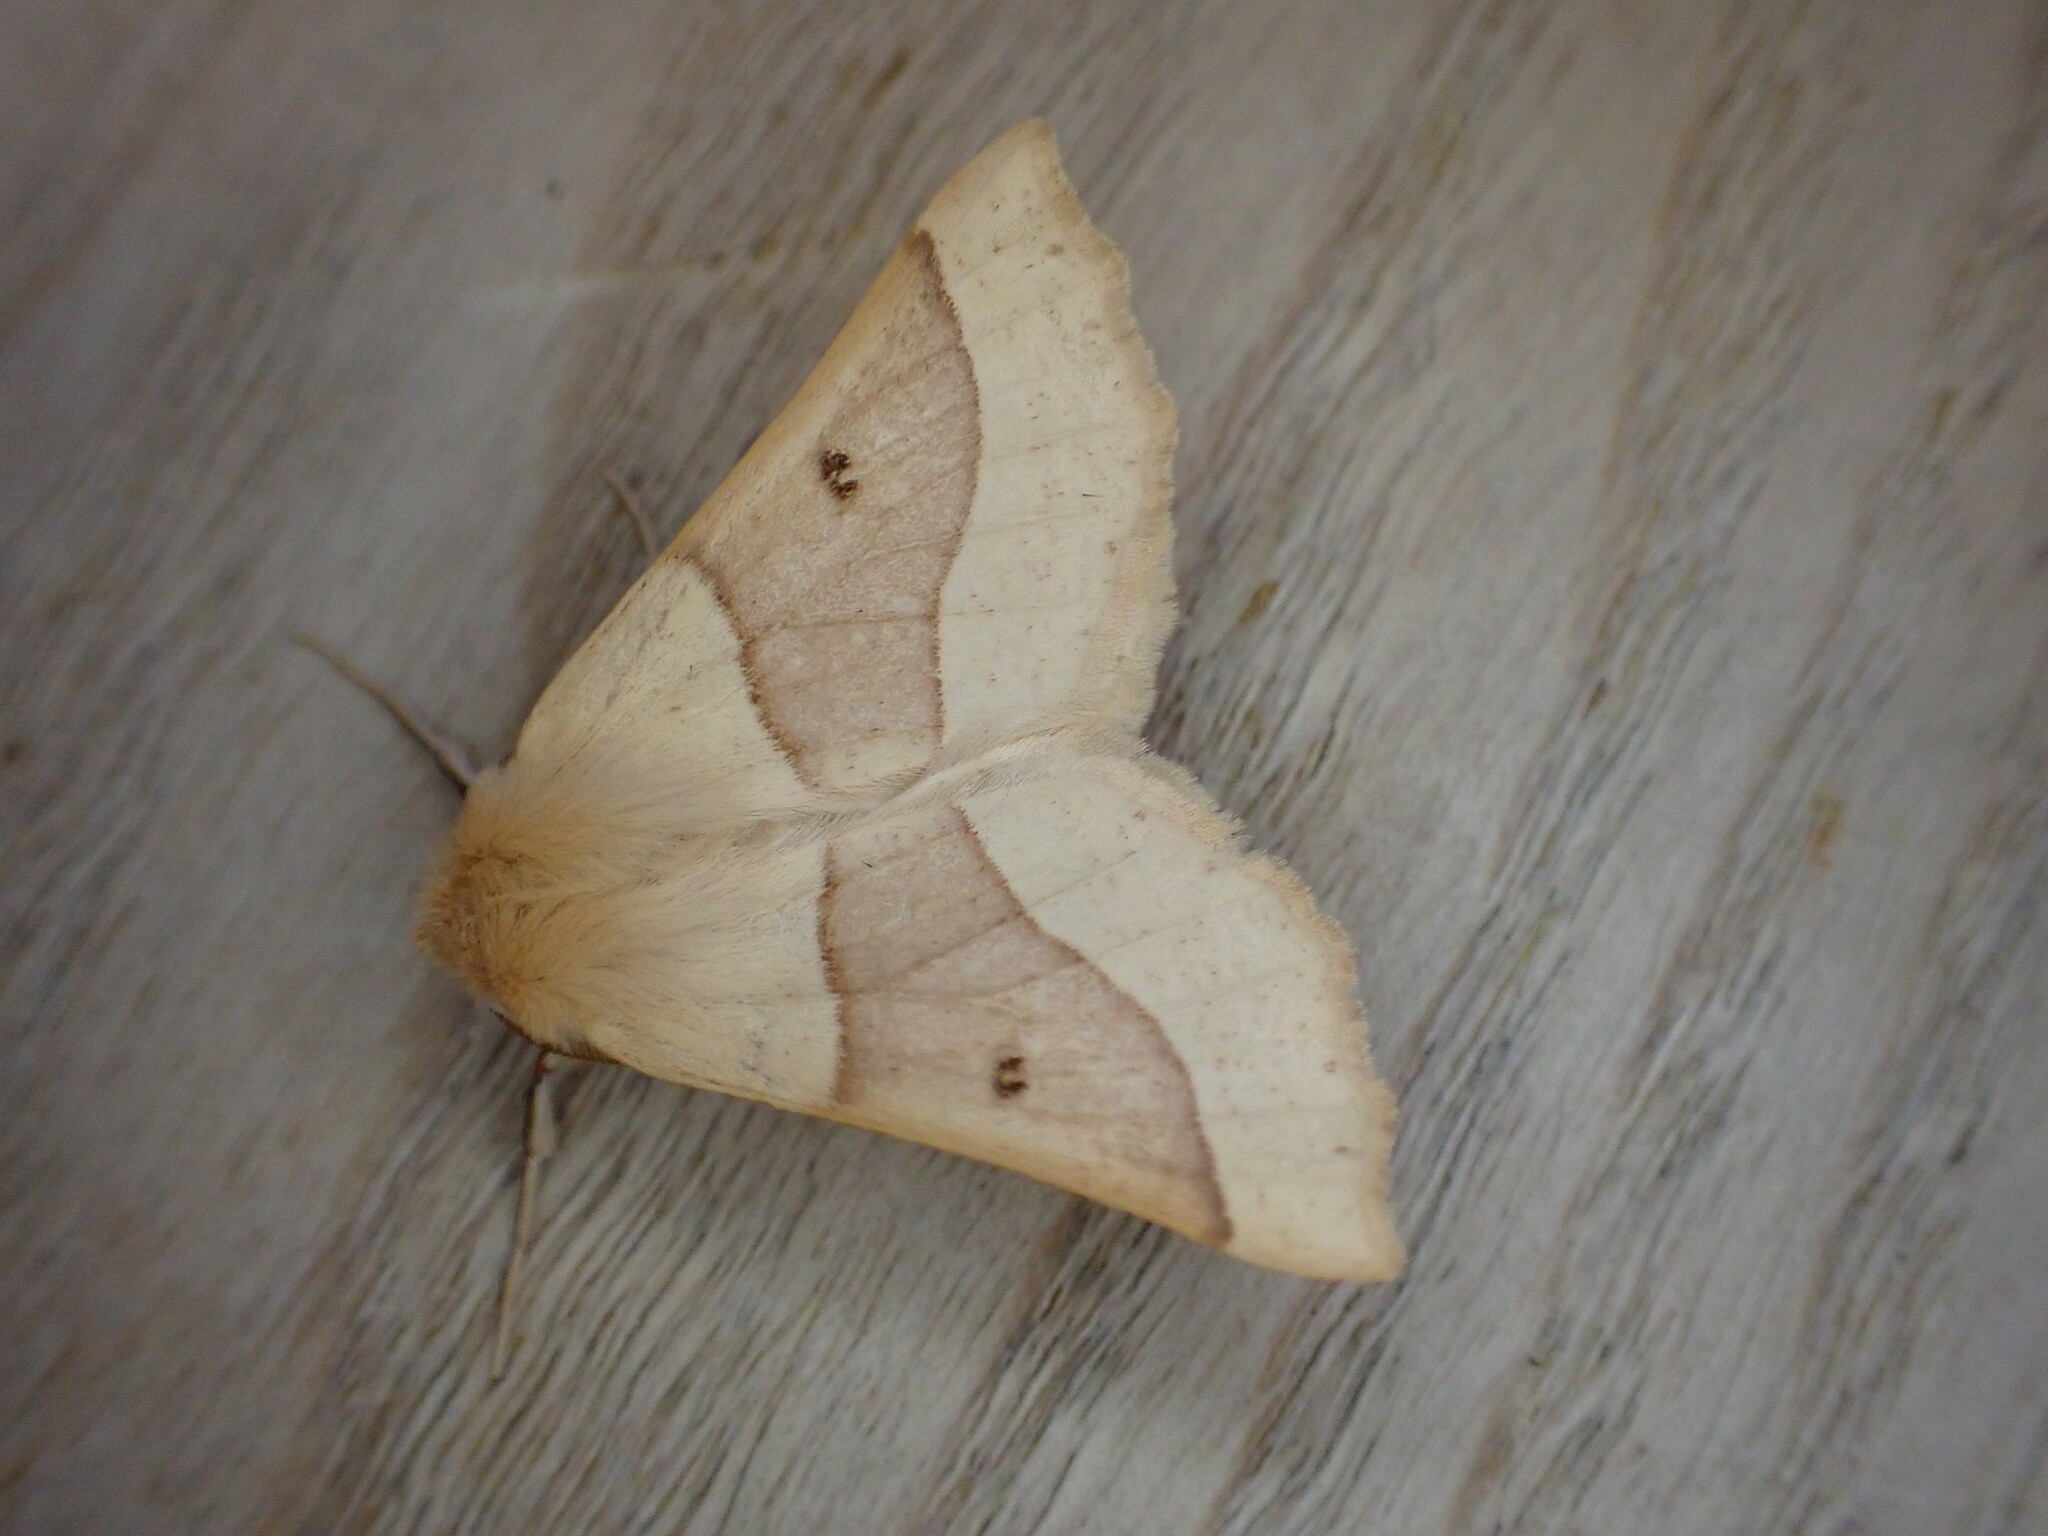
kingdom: Animalia
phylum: Arthropoda
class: Insecta
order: Lepidoptera
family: Geometridae
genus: Crocallis
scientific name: Crocallis elinguaria
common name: Scalloped oak
